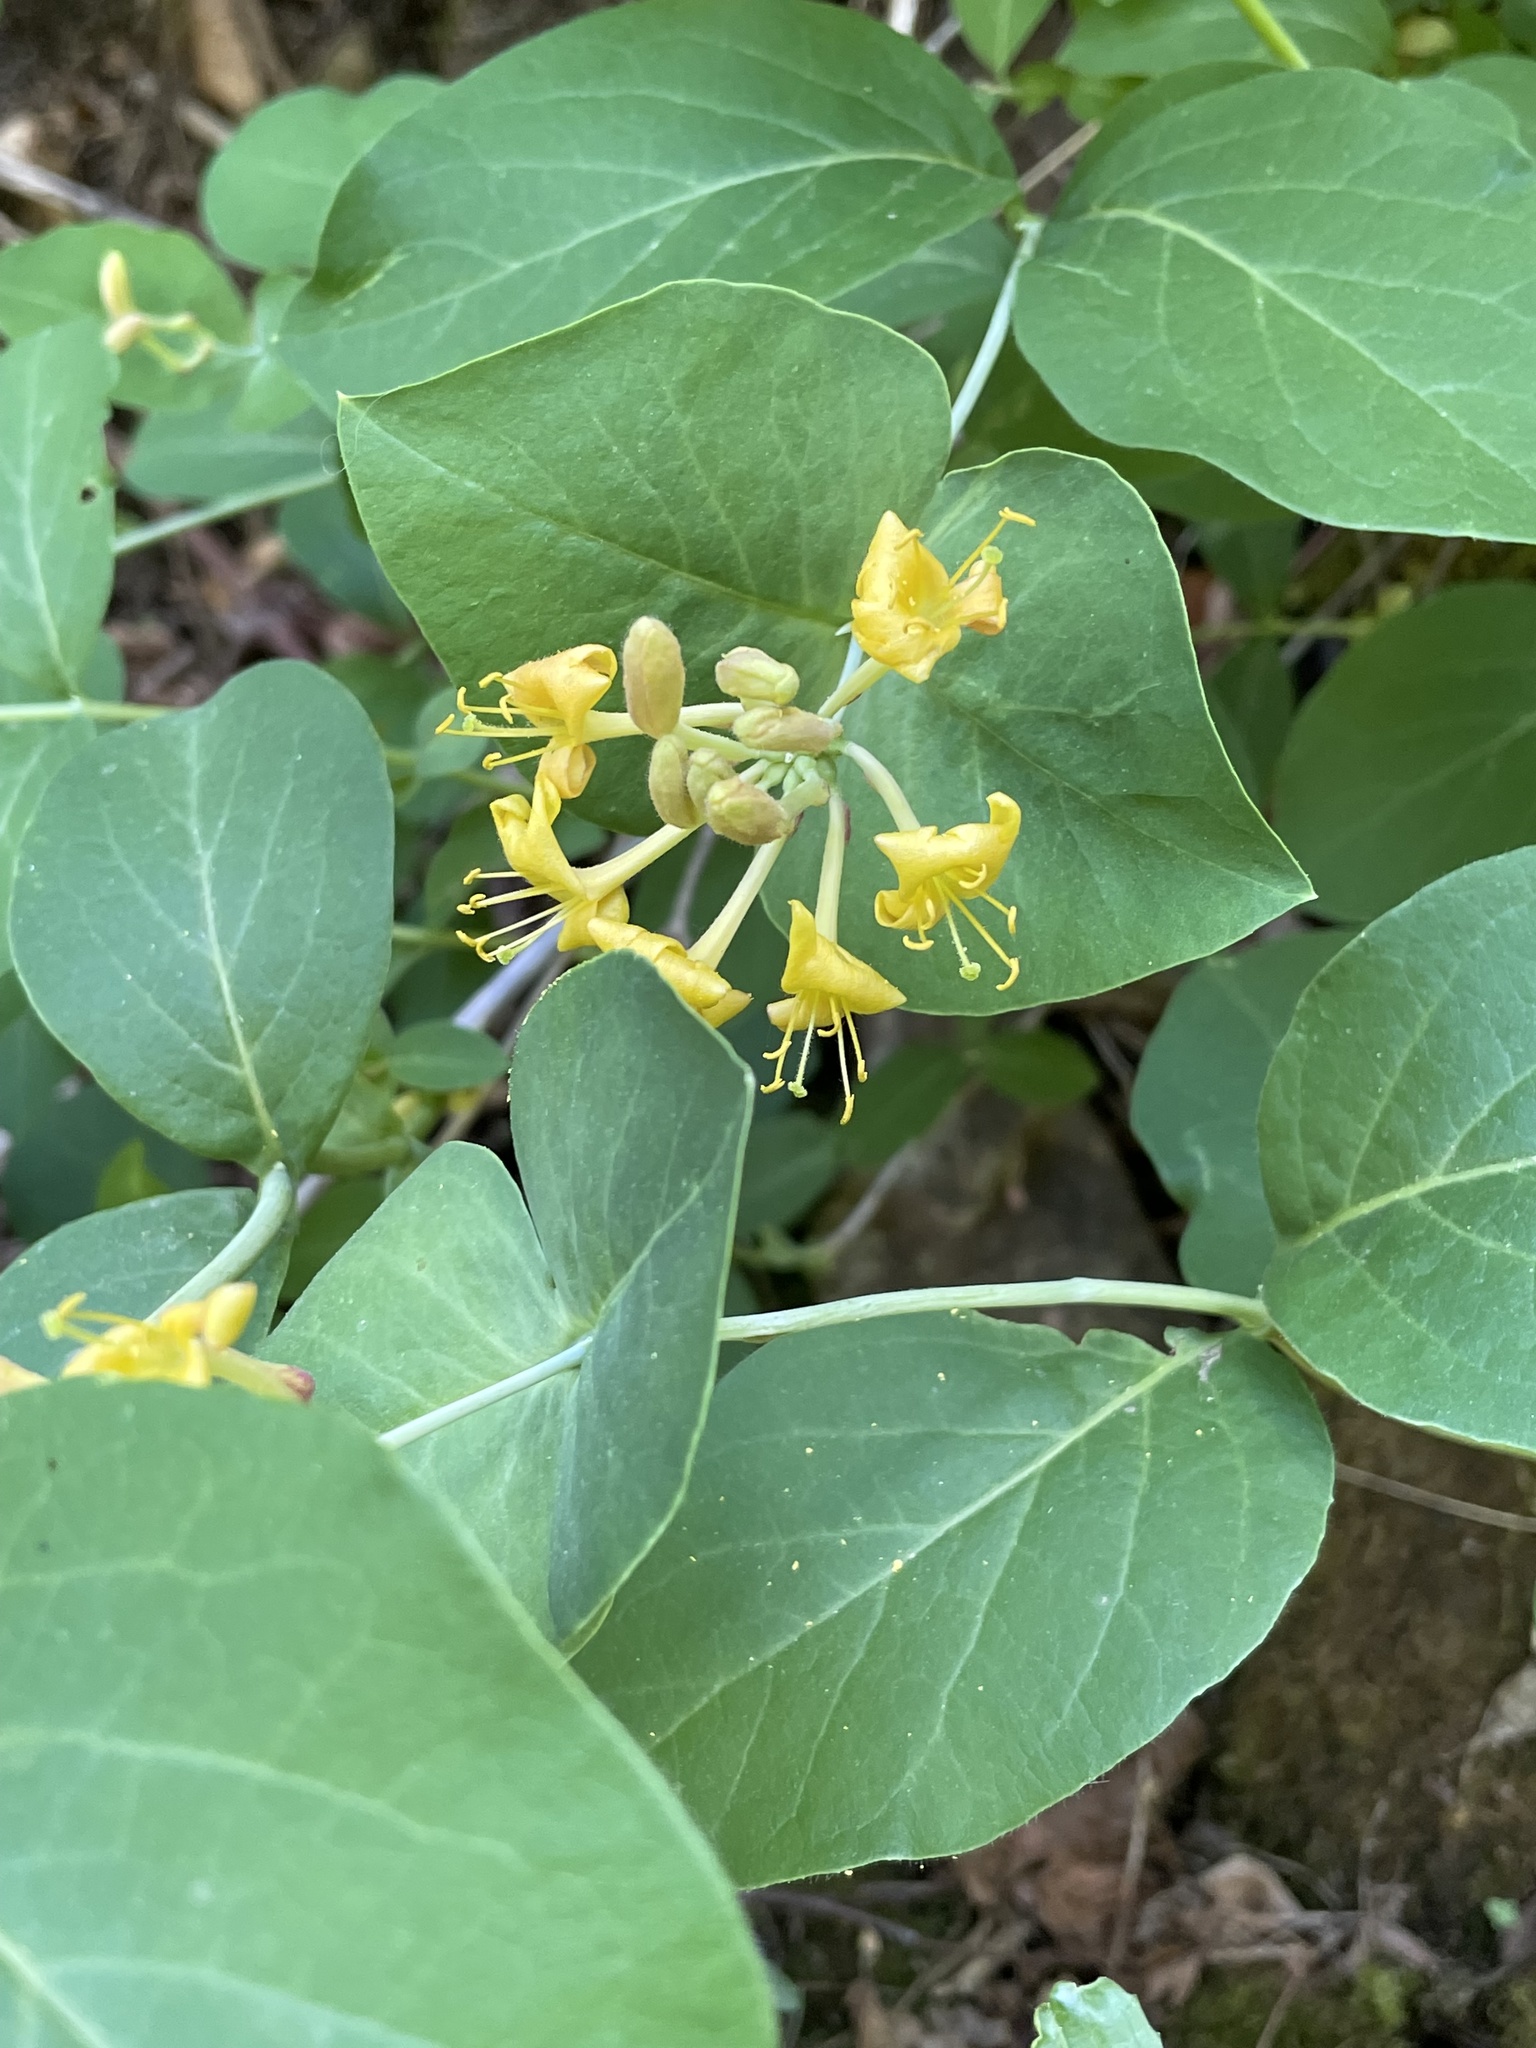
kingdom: Plantae
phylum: Tracheophyta
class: Magnoliopsida
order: Dipsacales
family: Caprifoliaceae
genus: Lonicera
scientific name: Lonicera dioica
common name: Limber honeysuckle
